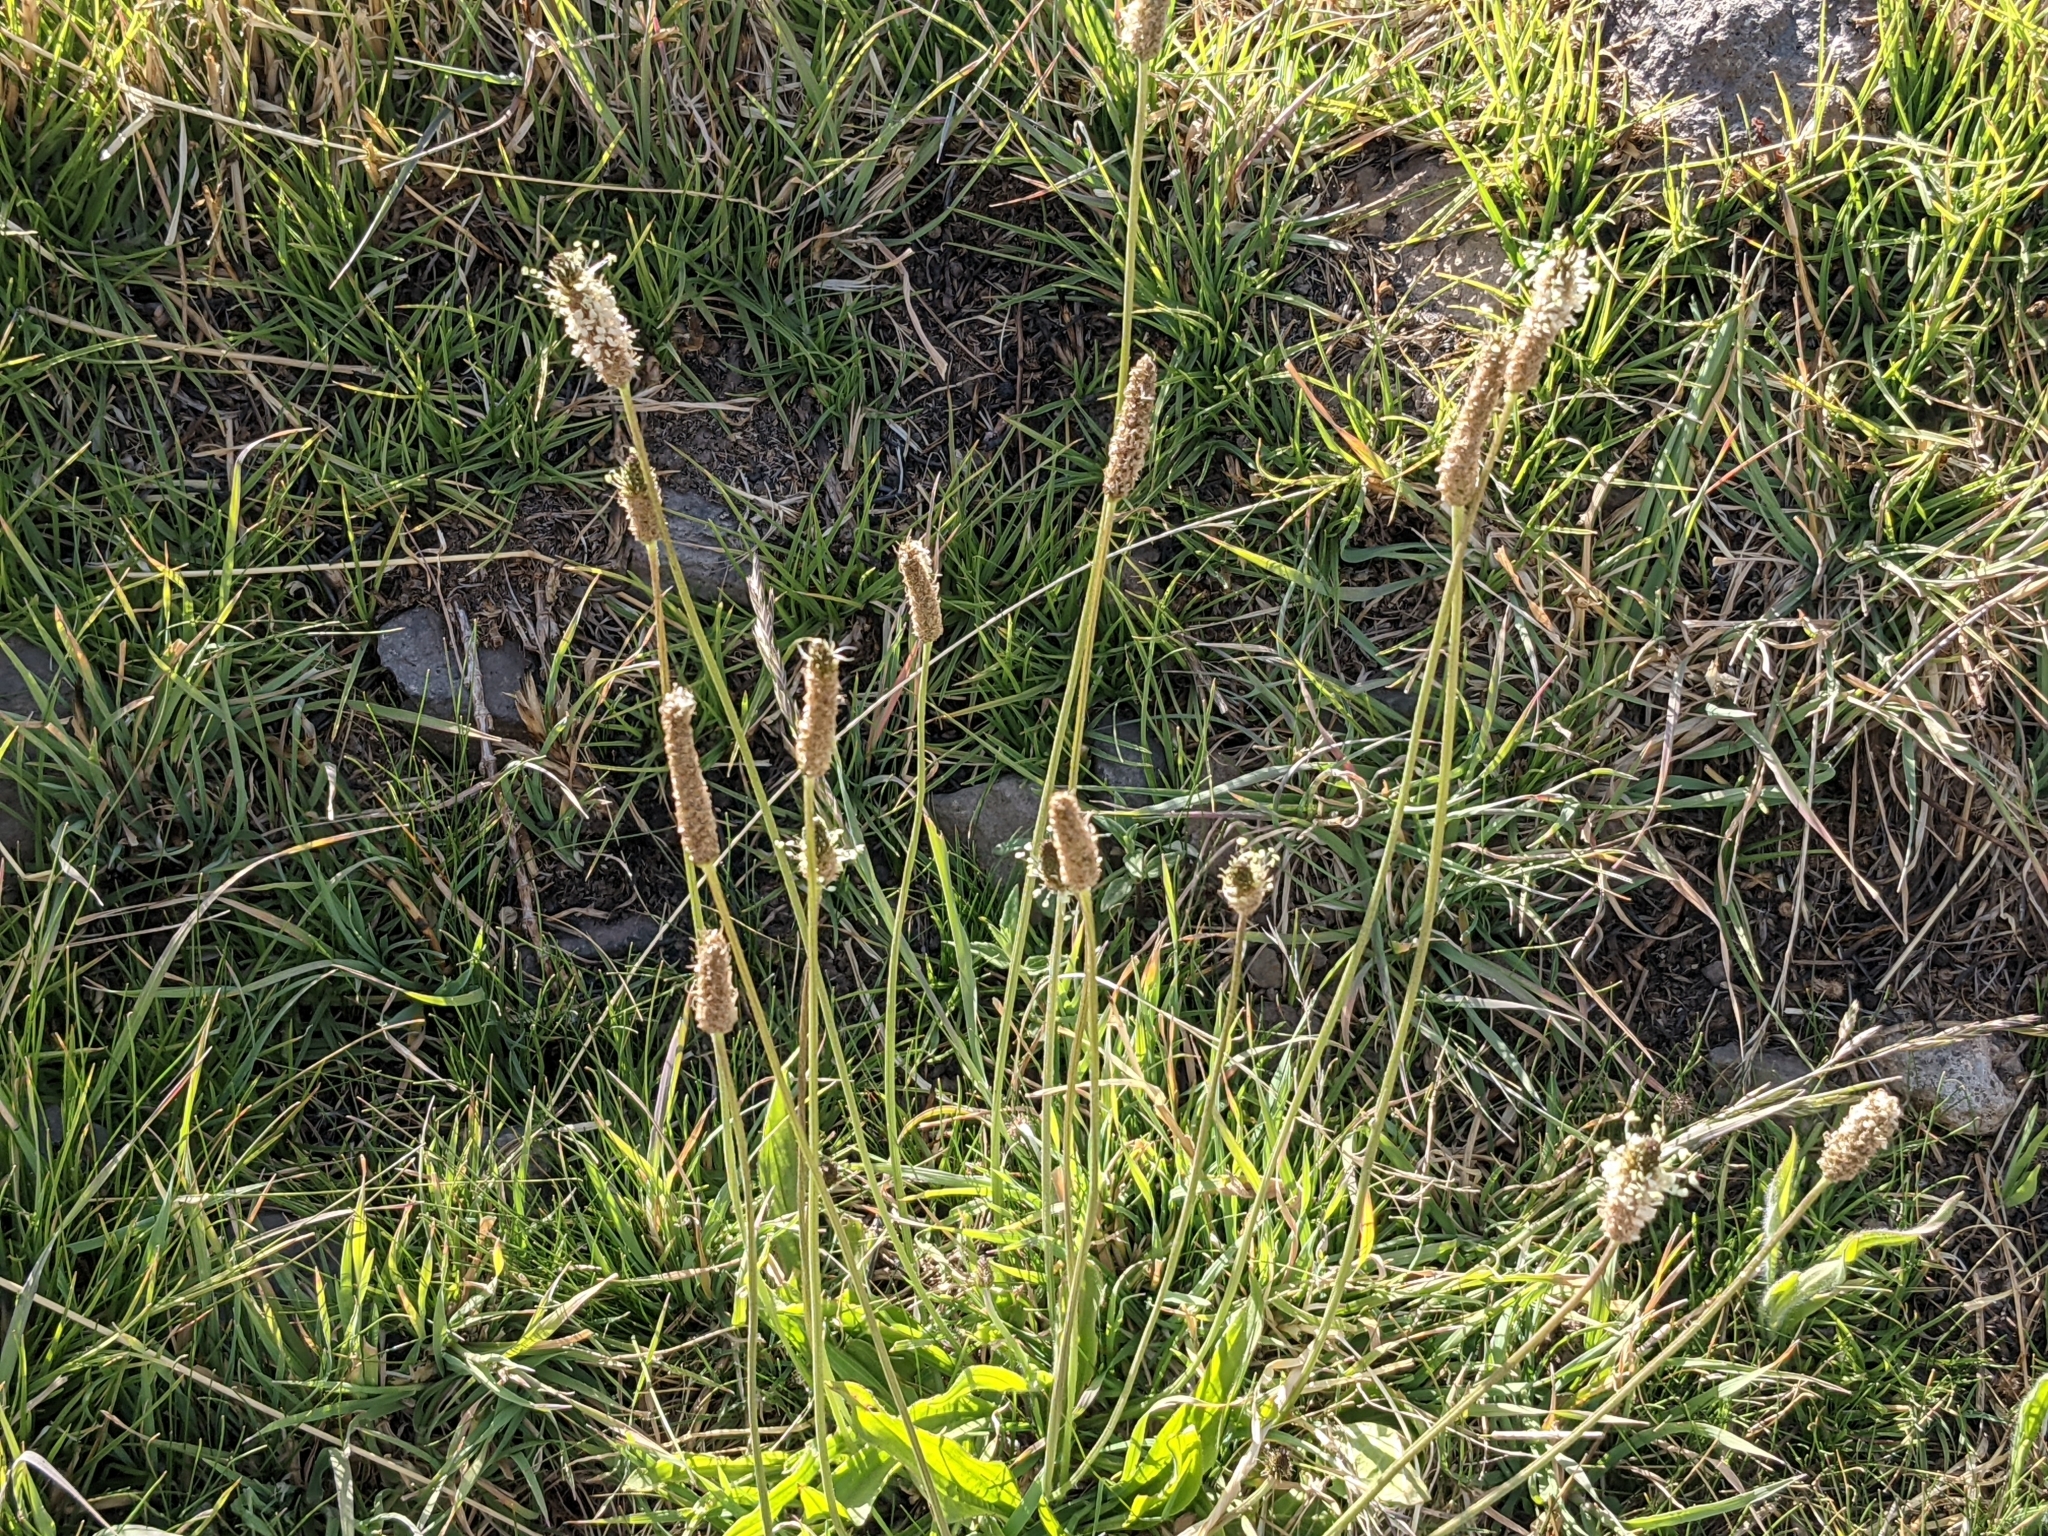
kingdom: Plantae
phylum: Tracheophyta
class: Magnoliopsida
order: Lamiales
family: Plantaginaceae
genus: Plantago
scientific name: Plantago lanceolata
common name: Ribwort plantain
